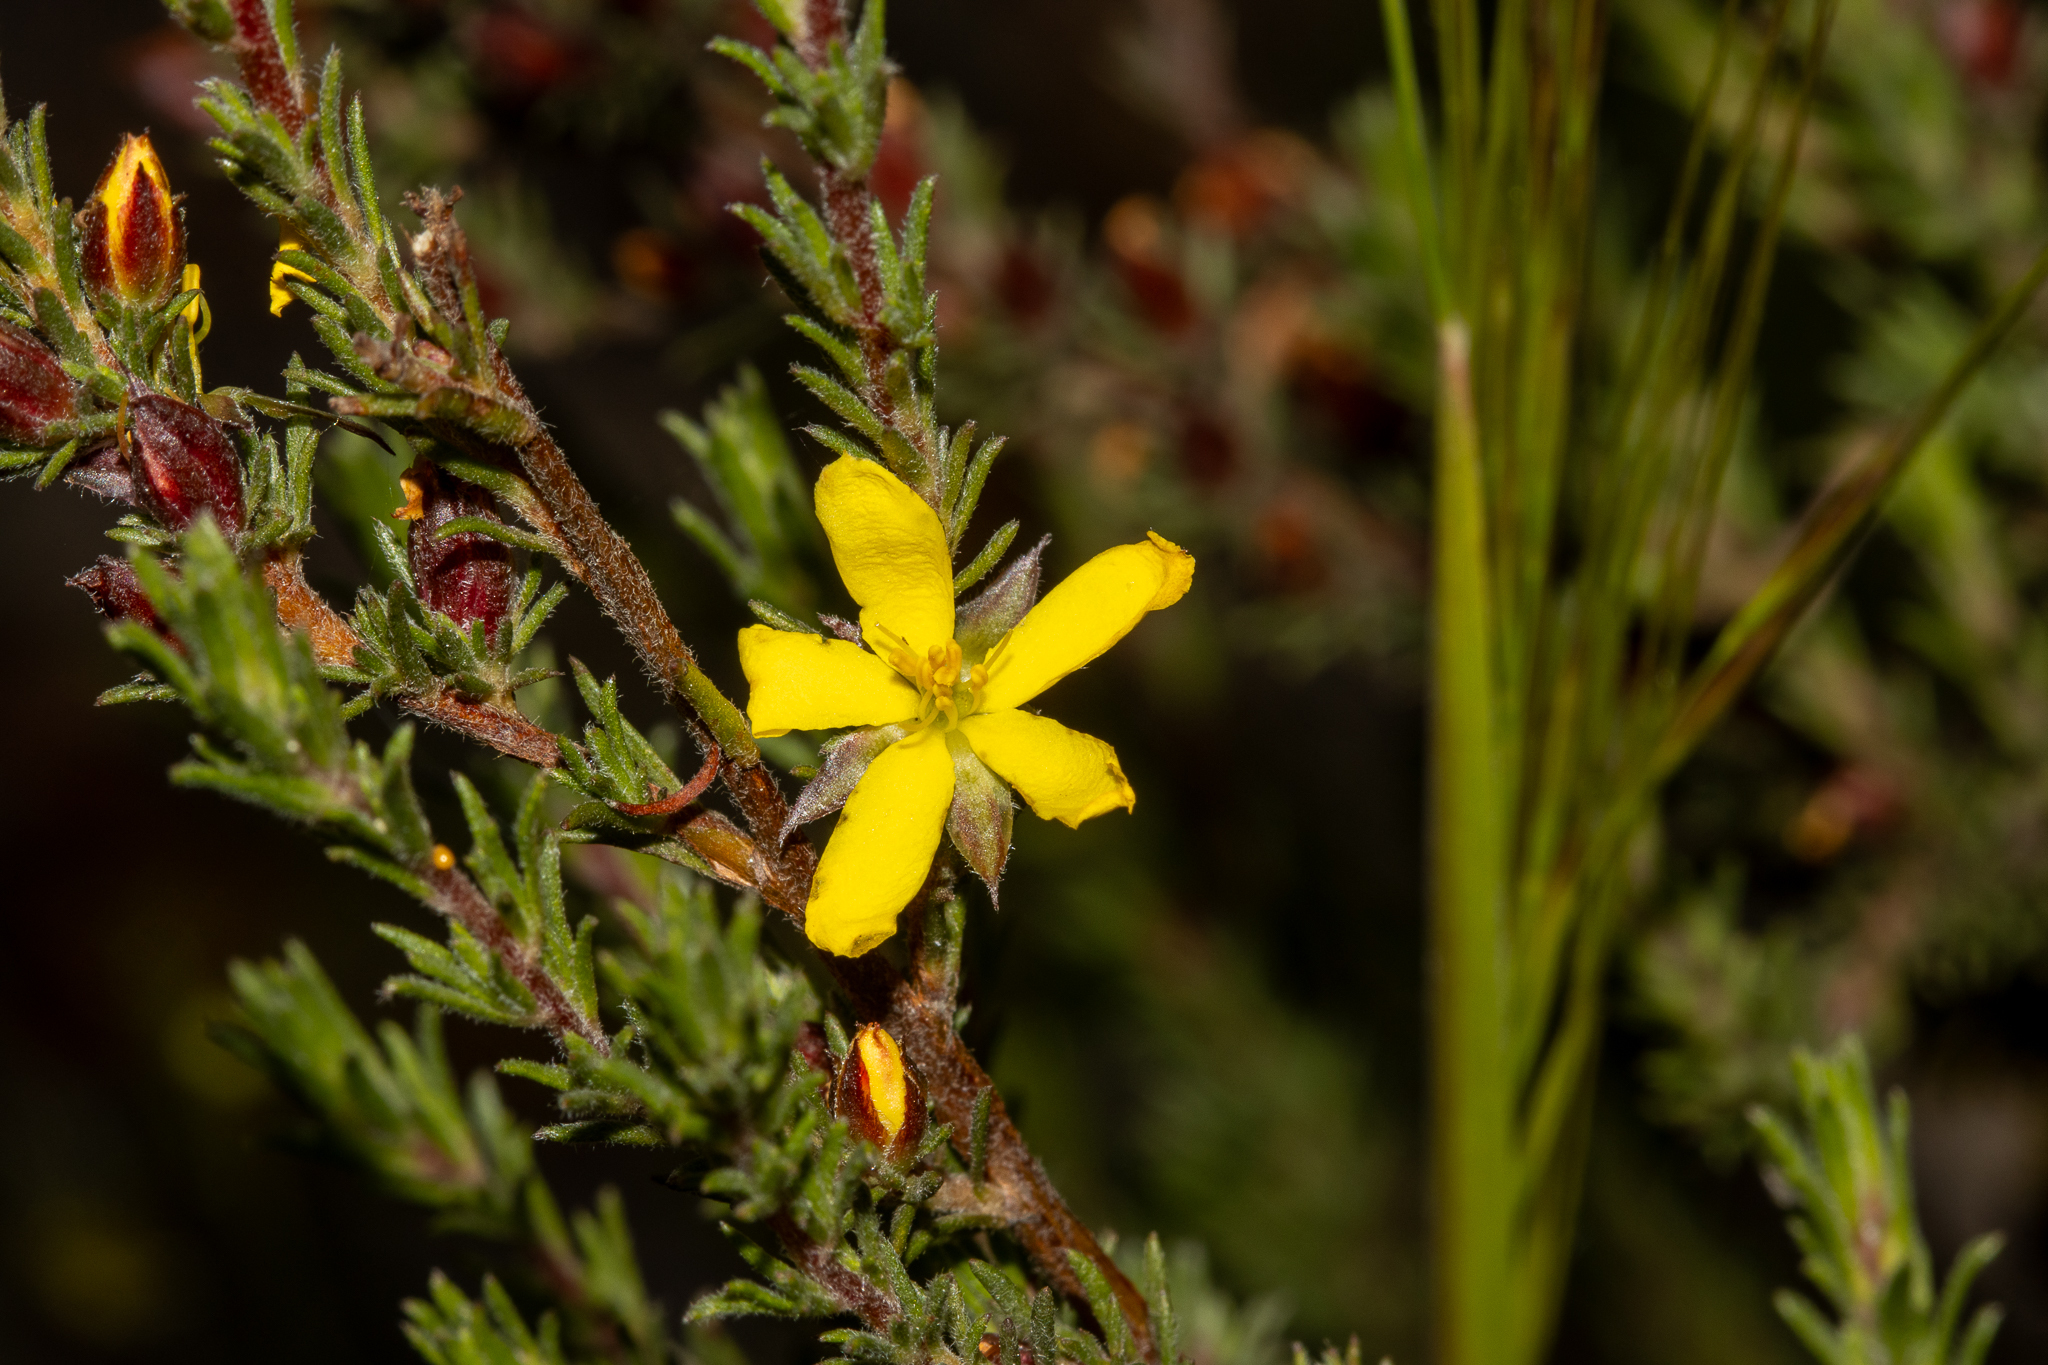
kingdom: Plantae
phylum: Tracheophyta
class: Magnoliopsida
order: Dilleniales
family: Dilleniaceae
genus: Hibbertia
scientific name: Hibbertia fasciculata
